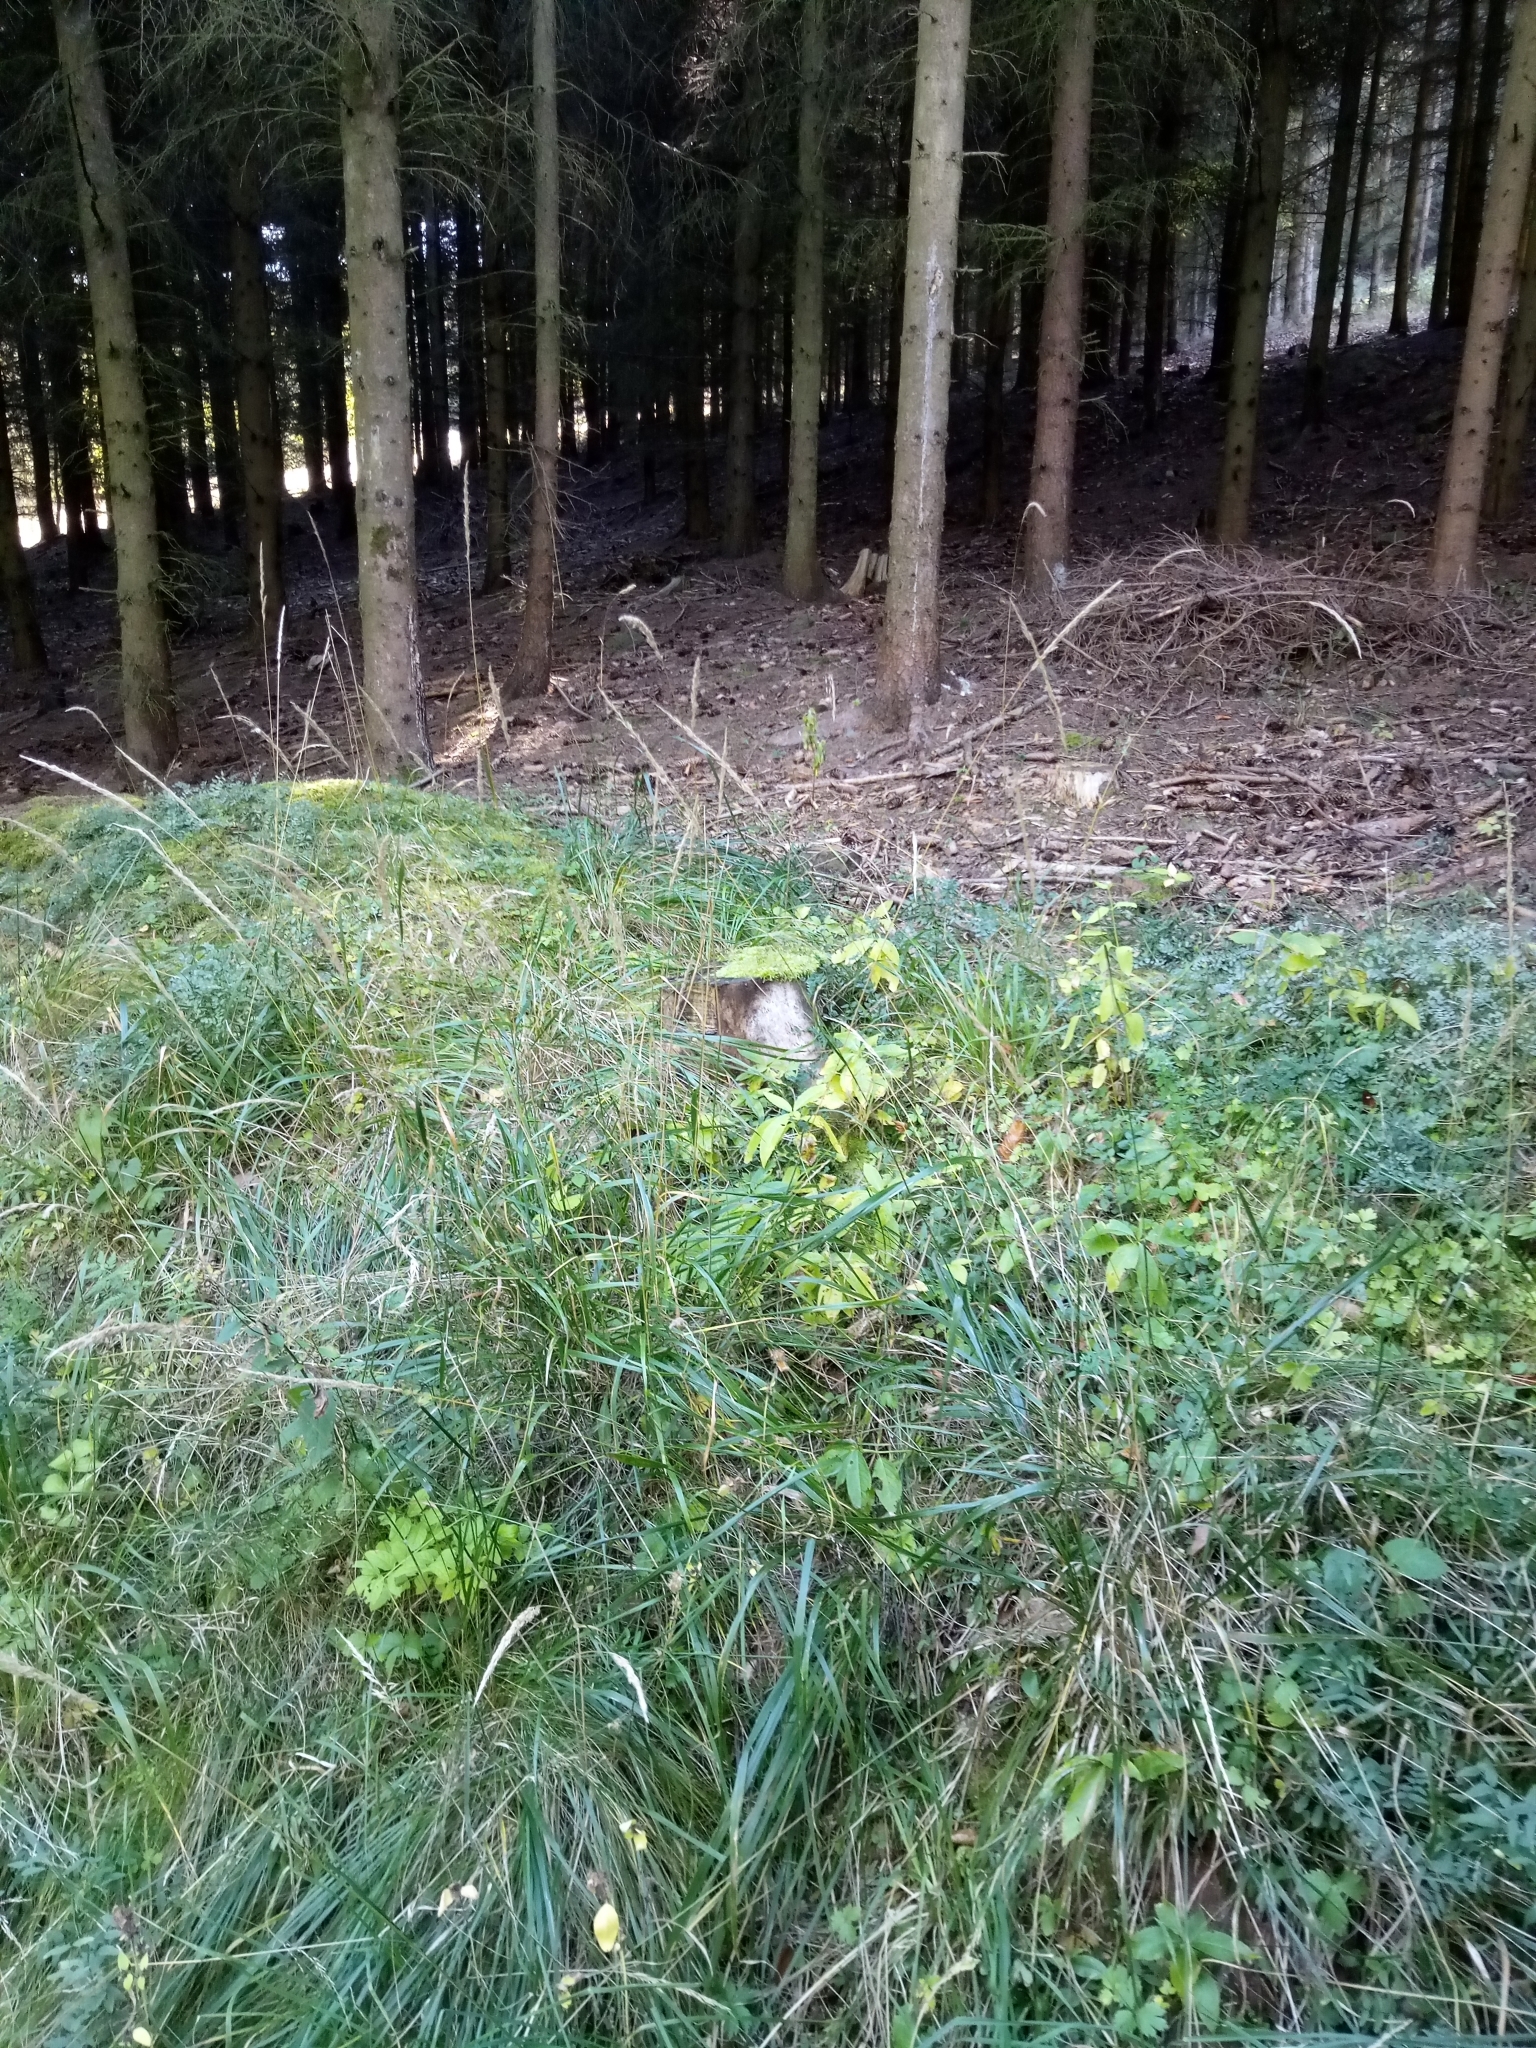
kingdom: Plantae
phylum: Tracheophyta
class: Liliopsida
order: Poales
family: Poaceae
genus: Calamagrostis
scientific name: Calamagrostis arundinacea
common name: Metskastik
